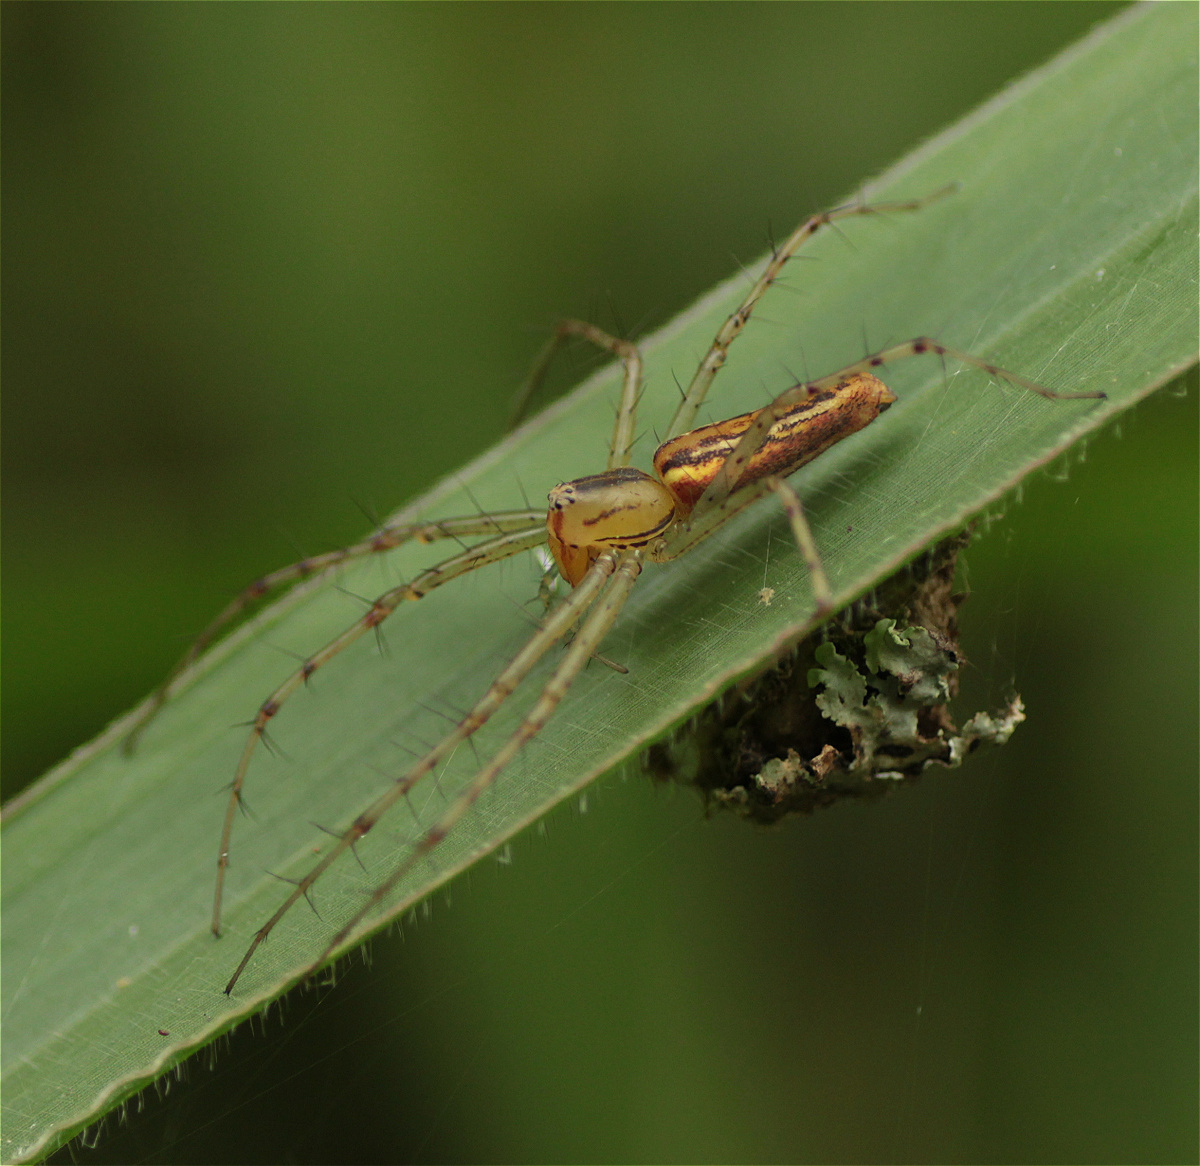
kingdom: Animalia
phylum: Arthropoda
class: Arachnida
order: Araneae
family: Oxyopidae
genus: Peucetia
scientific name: Peucetia rubrolineata
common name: Lynx spiders
